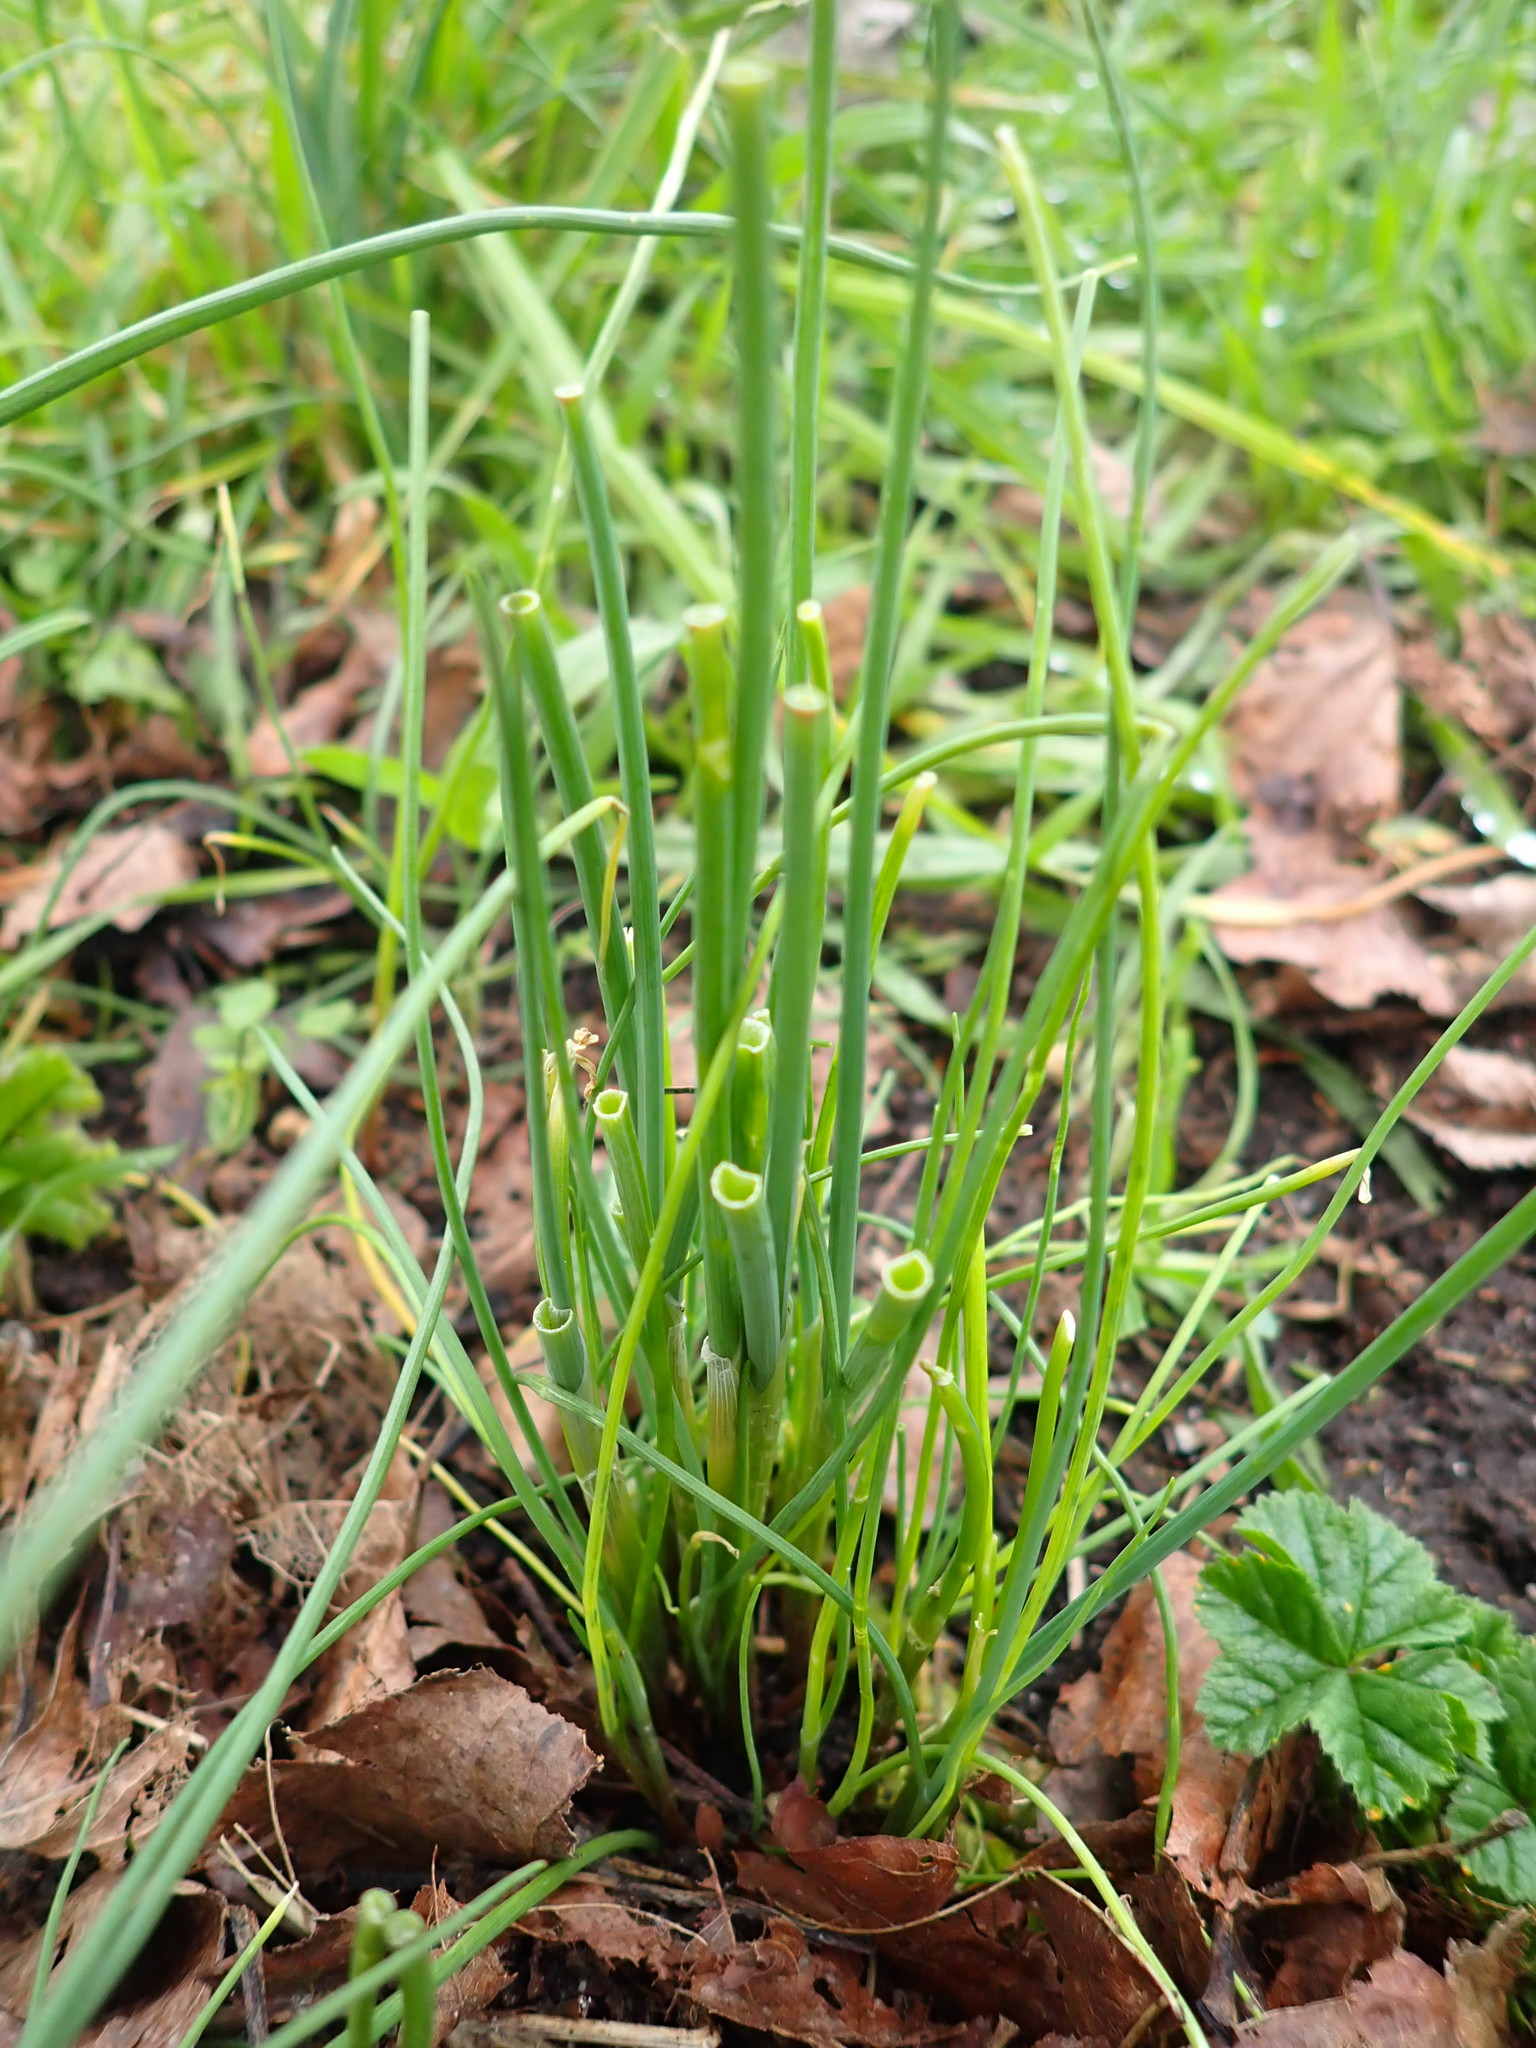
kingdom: Plantae
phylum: Tracheophyta
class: Liliopsida
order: Asparagales
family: Amaryllidaceae
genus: Allium
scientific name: Allium vineale
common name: Crow garlic
